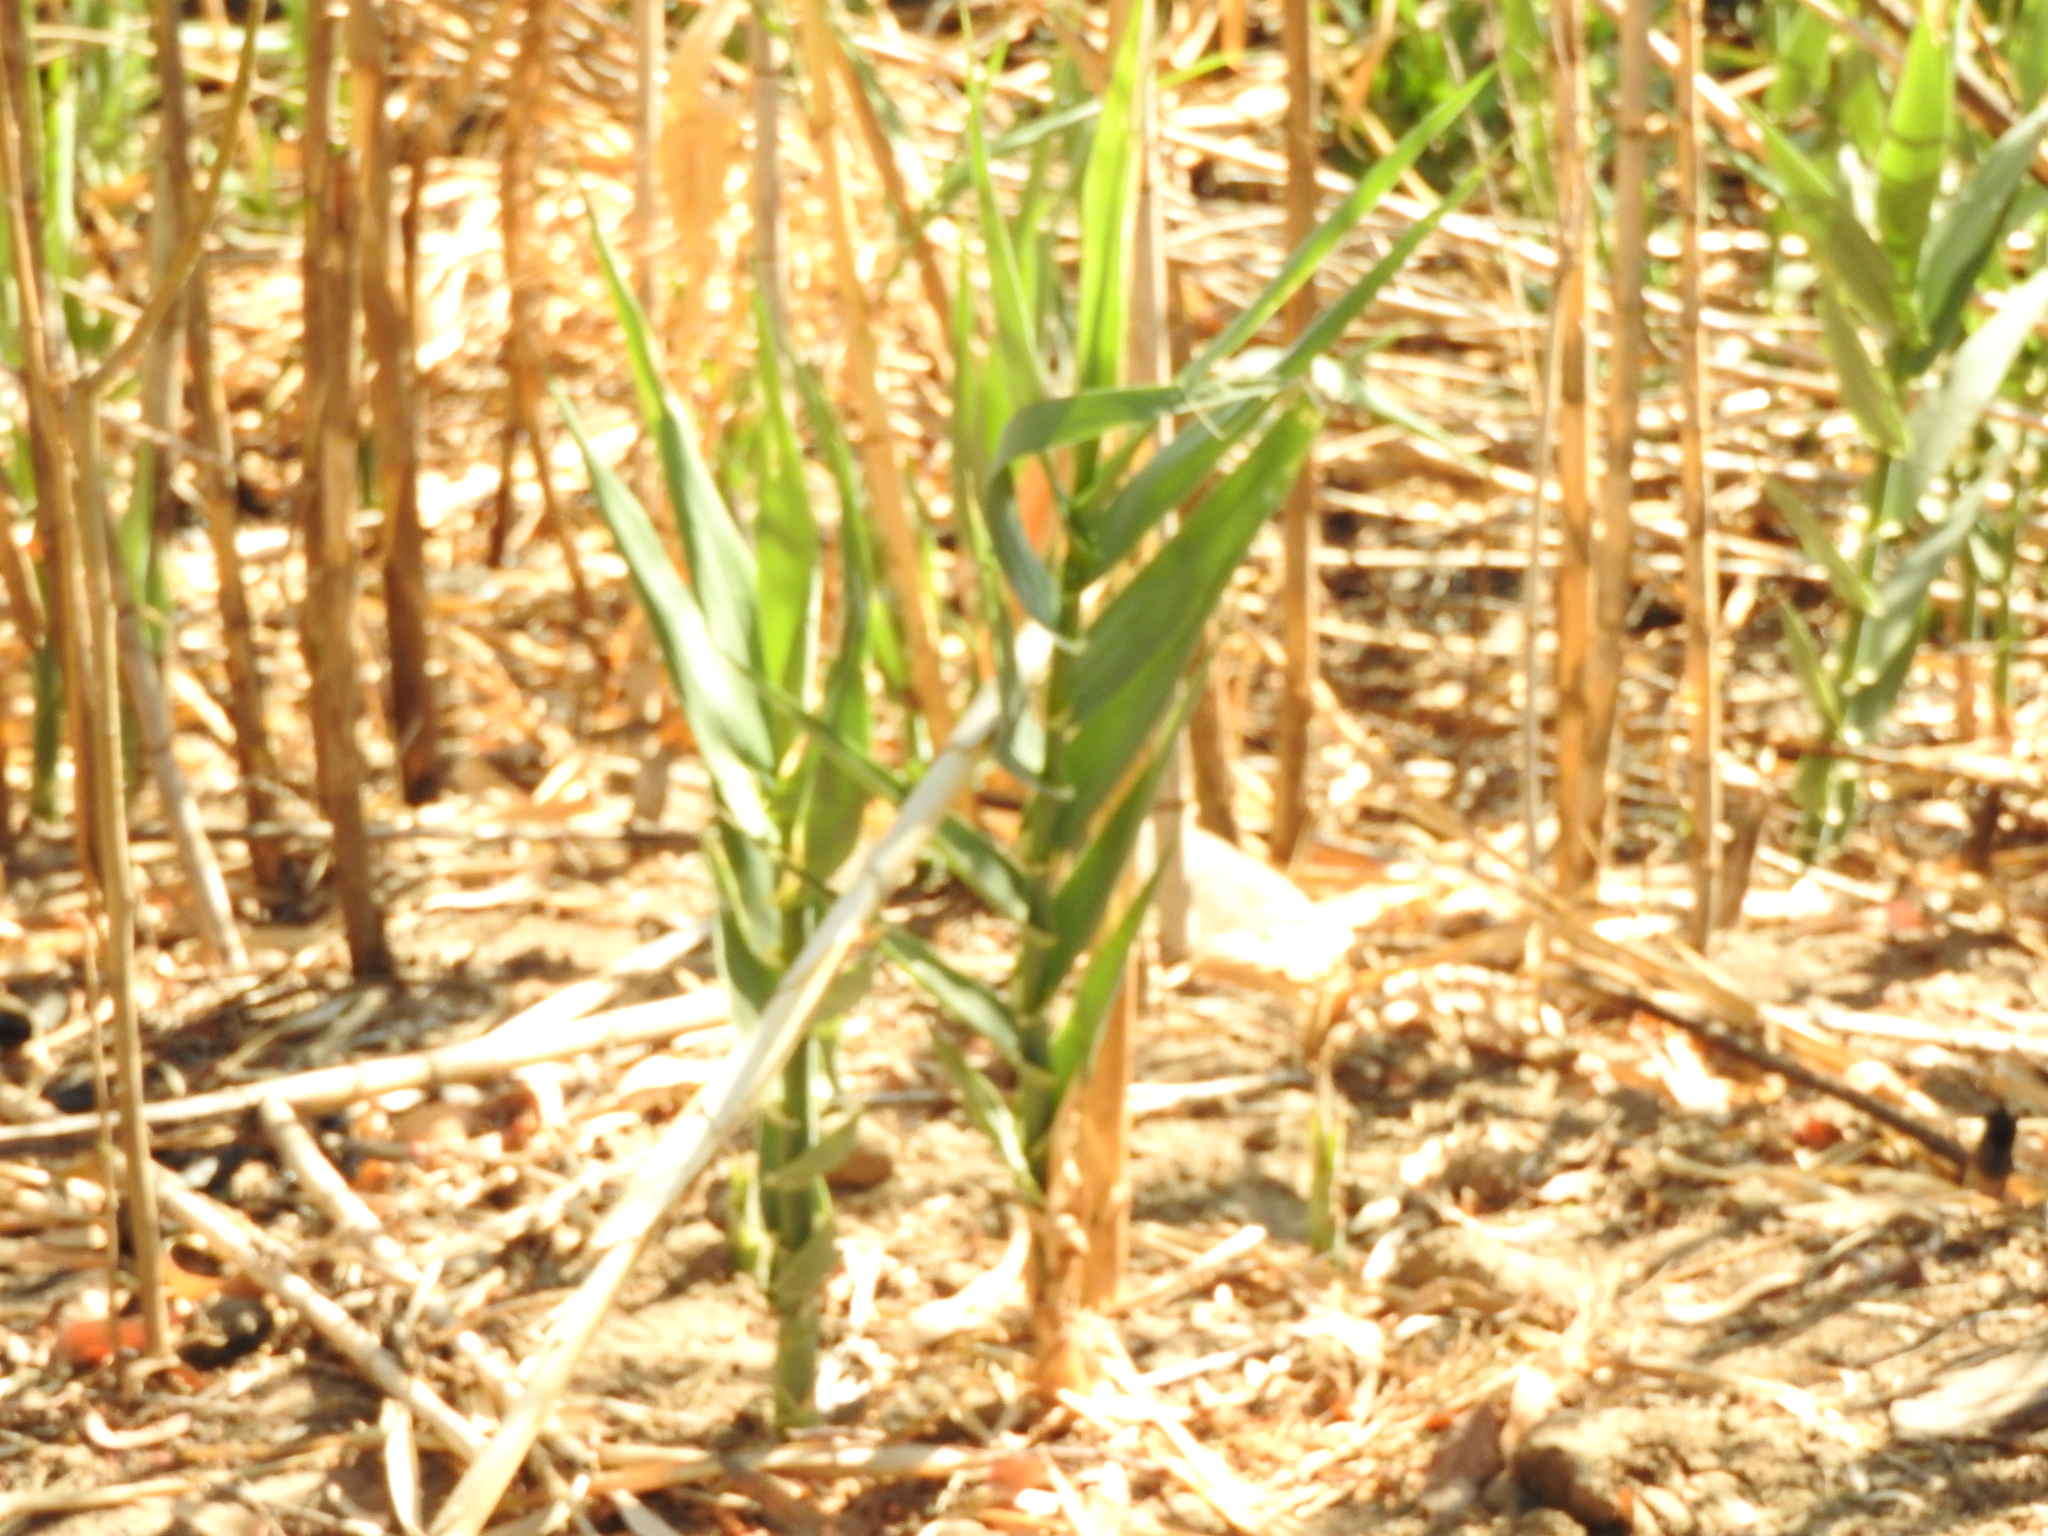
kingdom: Plantae
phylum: Tracheophyta
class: Liliopsida
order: Poales
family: Poaceae
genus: Arundo
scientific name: Arundo donax
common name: Giant reed
